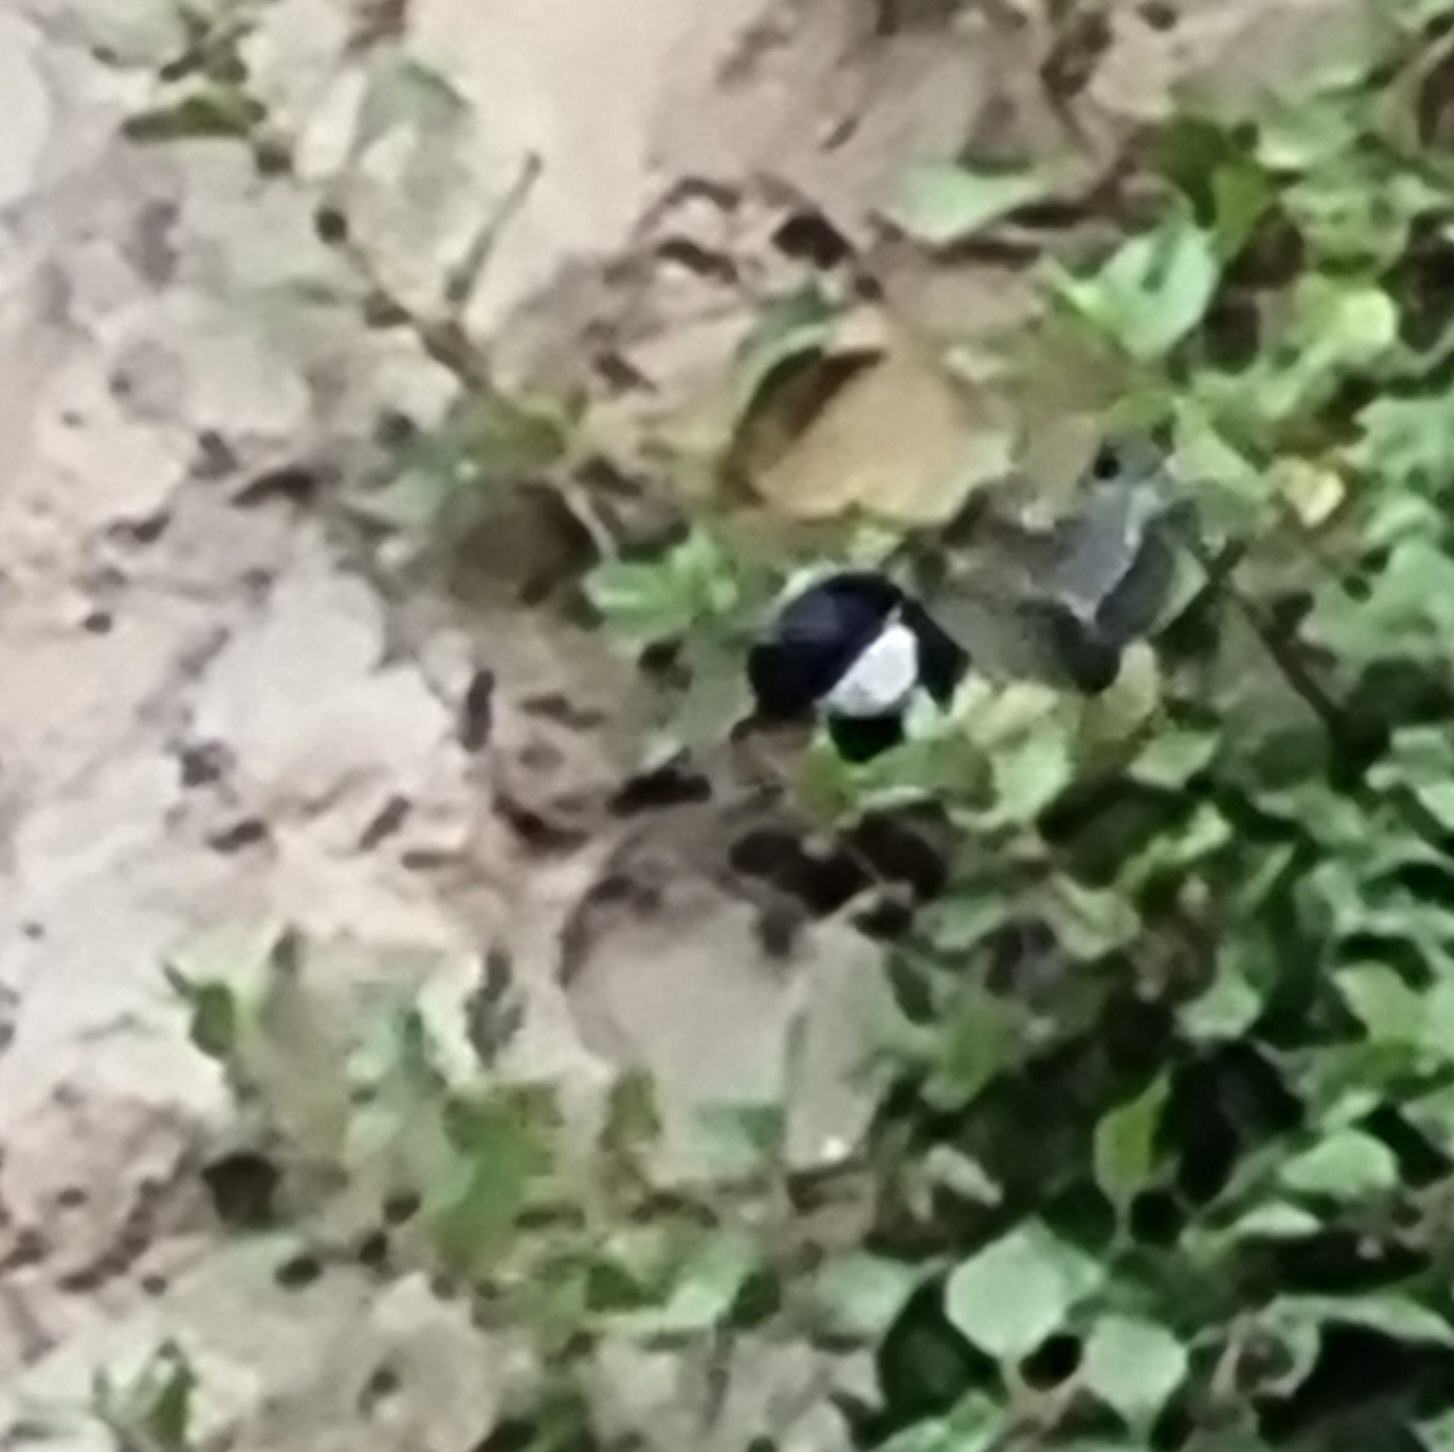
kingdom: Animalia
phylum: Chordata
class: Aves
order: Passeriformes
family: Paridae
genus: Parus
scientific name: Parus major
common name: Great tit
